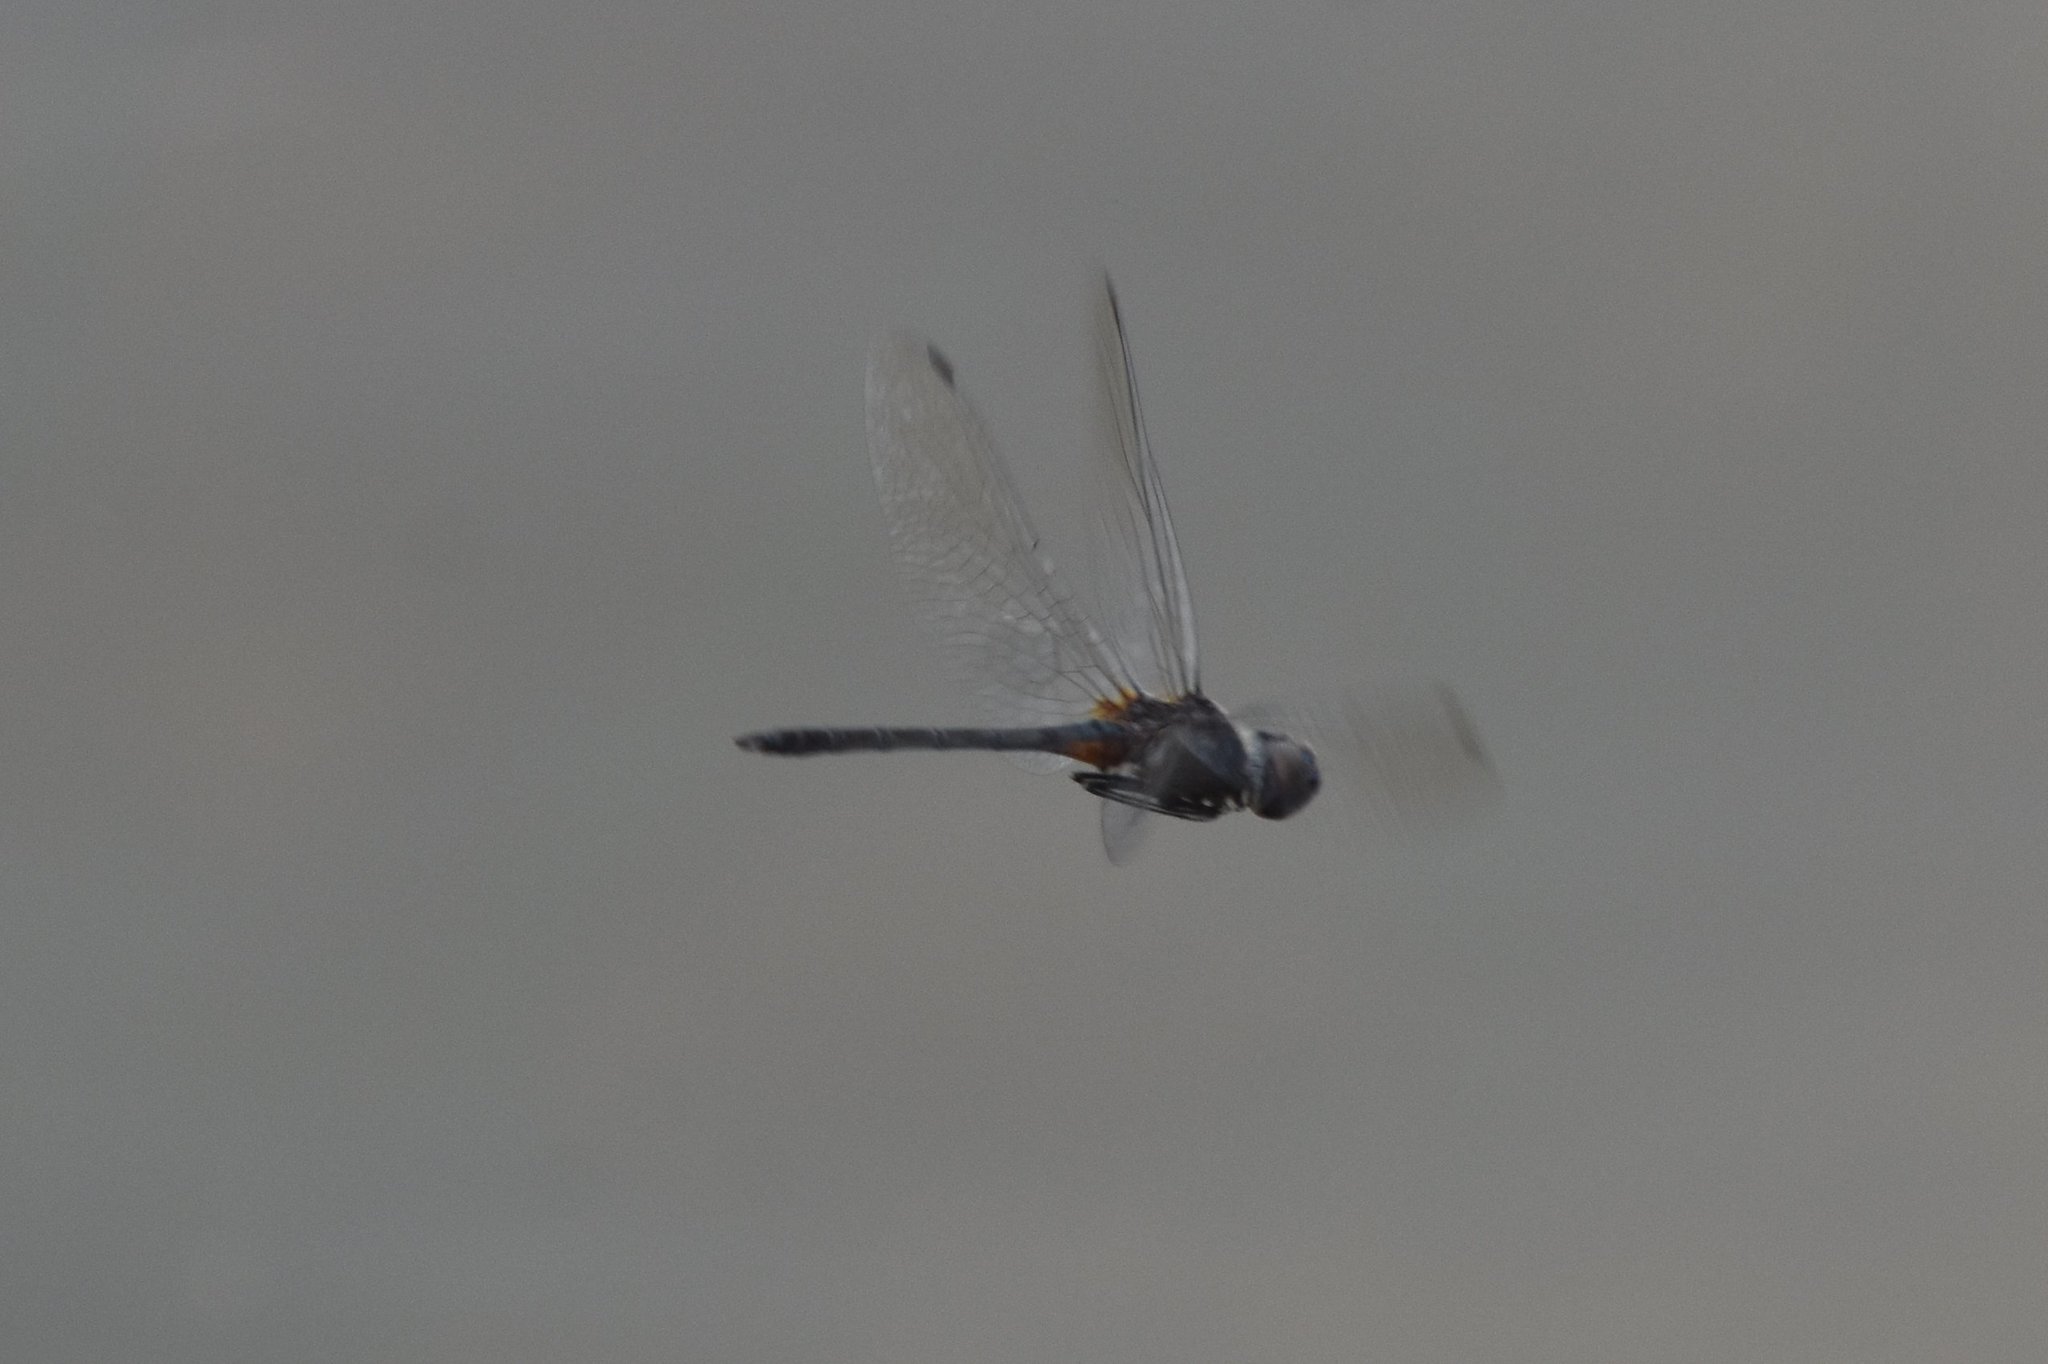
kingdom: Animalia
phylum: Arthropoda
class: Insecta
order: Odonata
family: Libellulidae
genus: Idiataphe
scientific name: Idiataphe cubensis
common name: Metallic pennant
